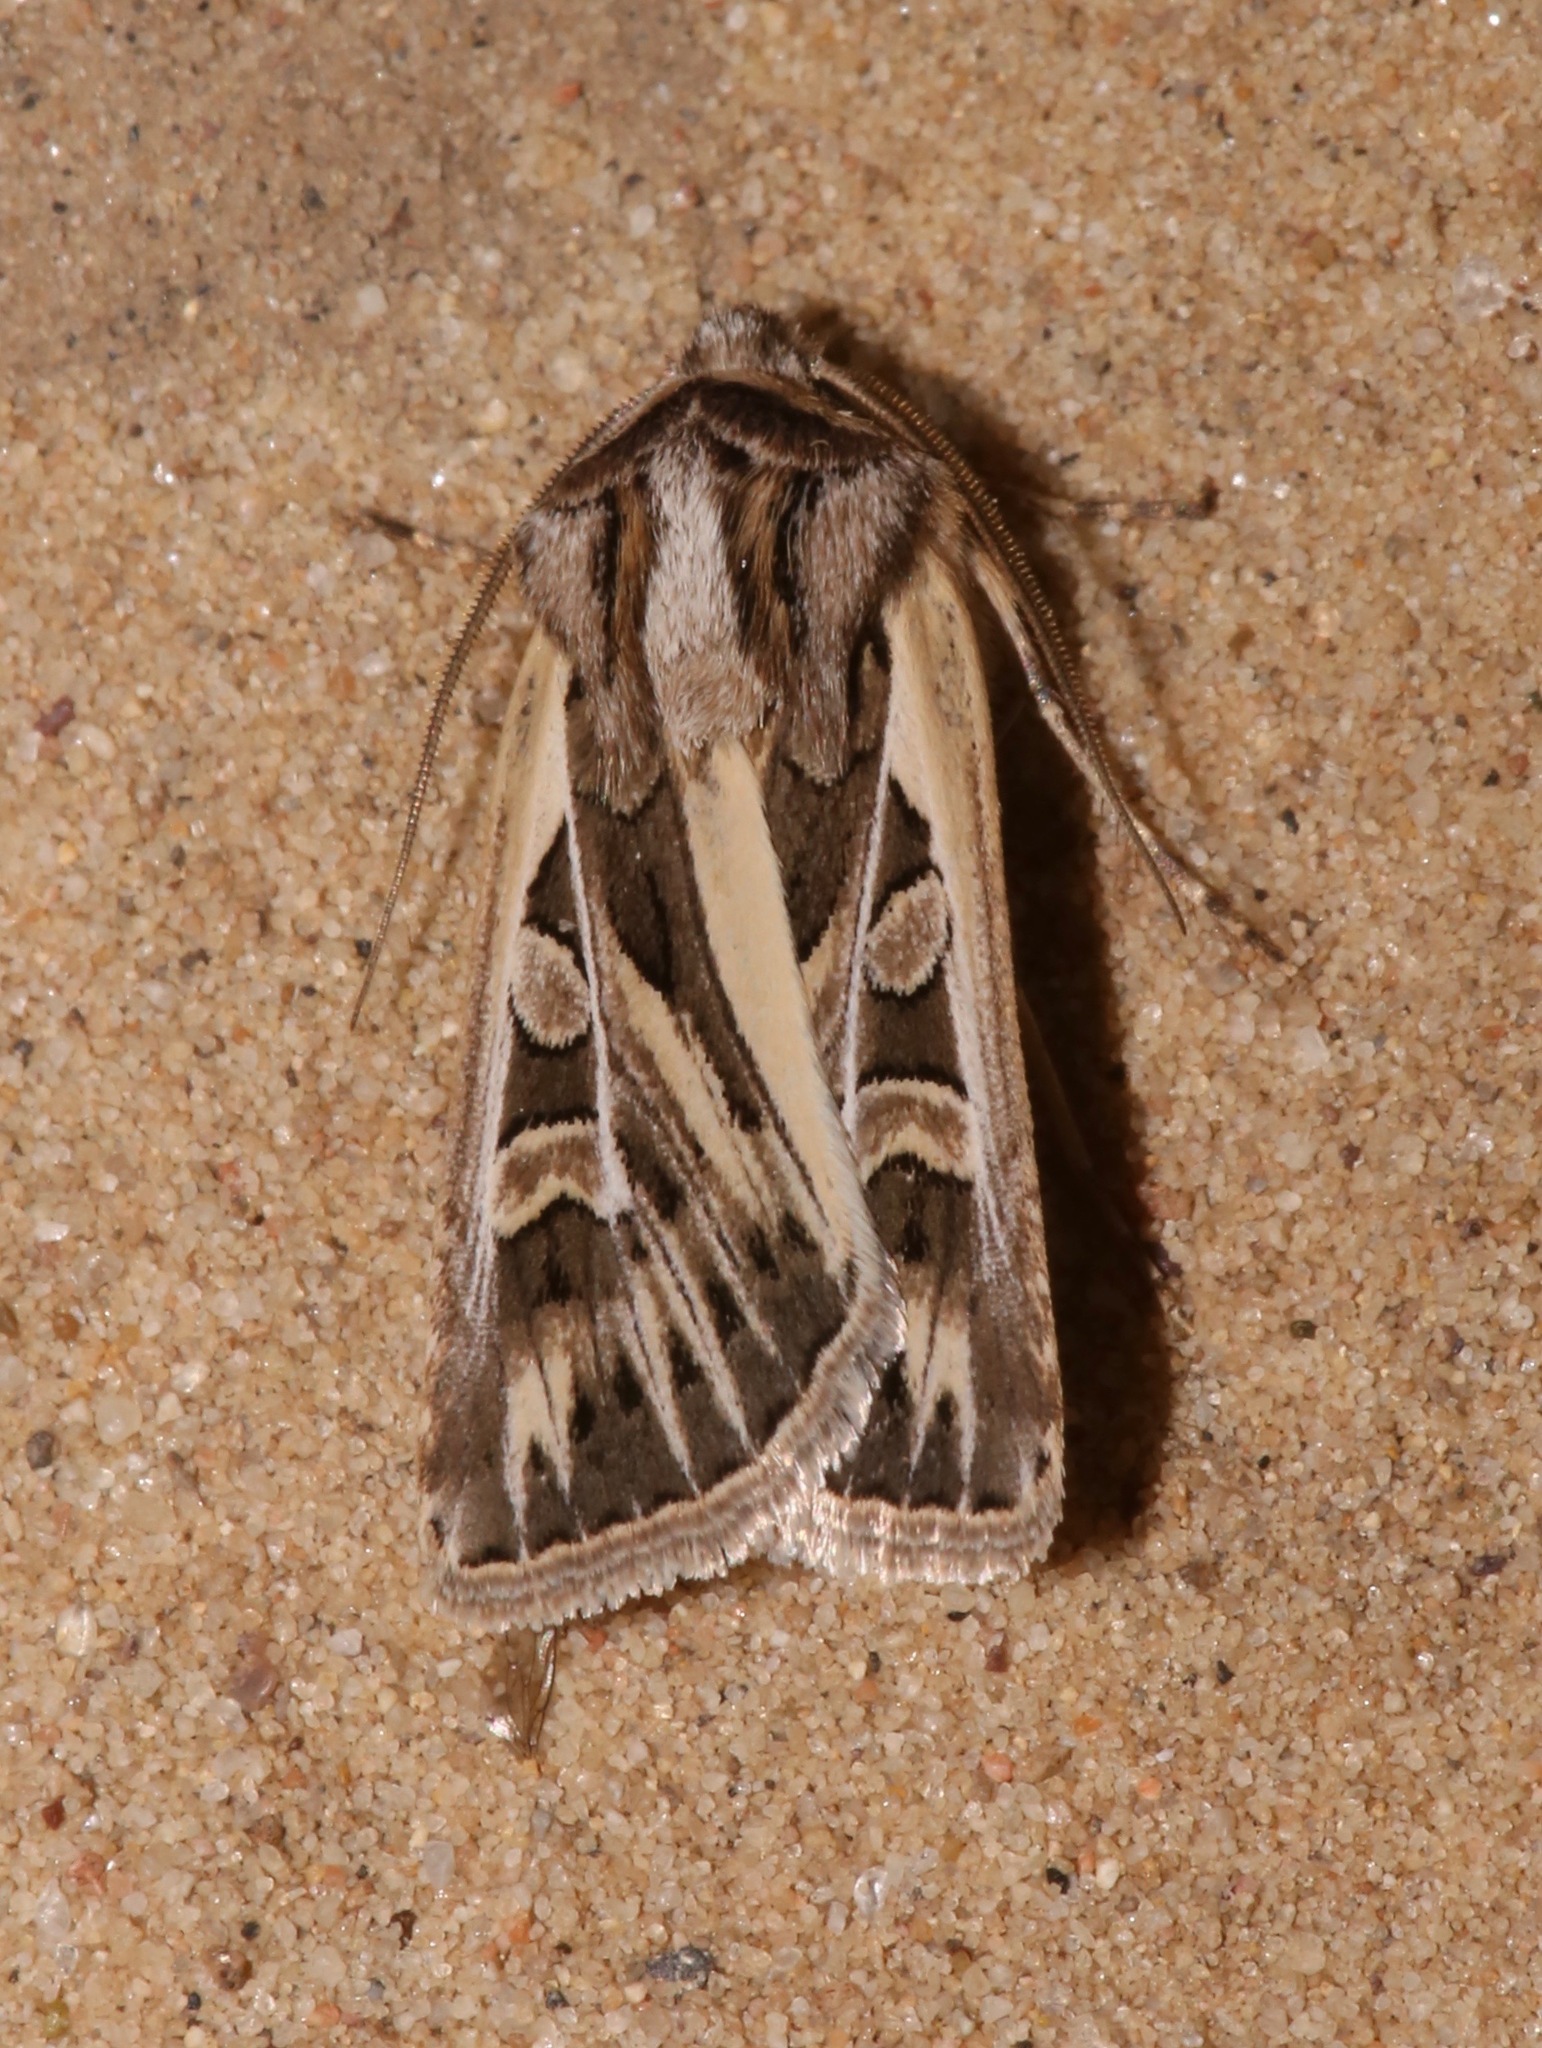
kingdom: Animalia
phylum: Arthropoda
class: Insecta
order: Lepidoptera
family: Noctuidae
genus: Euxoa
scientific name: Euxoa quadridentata
